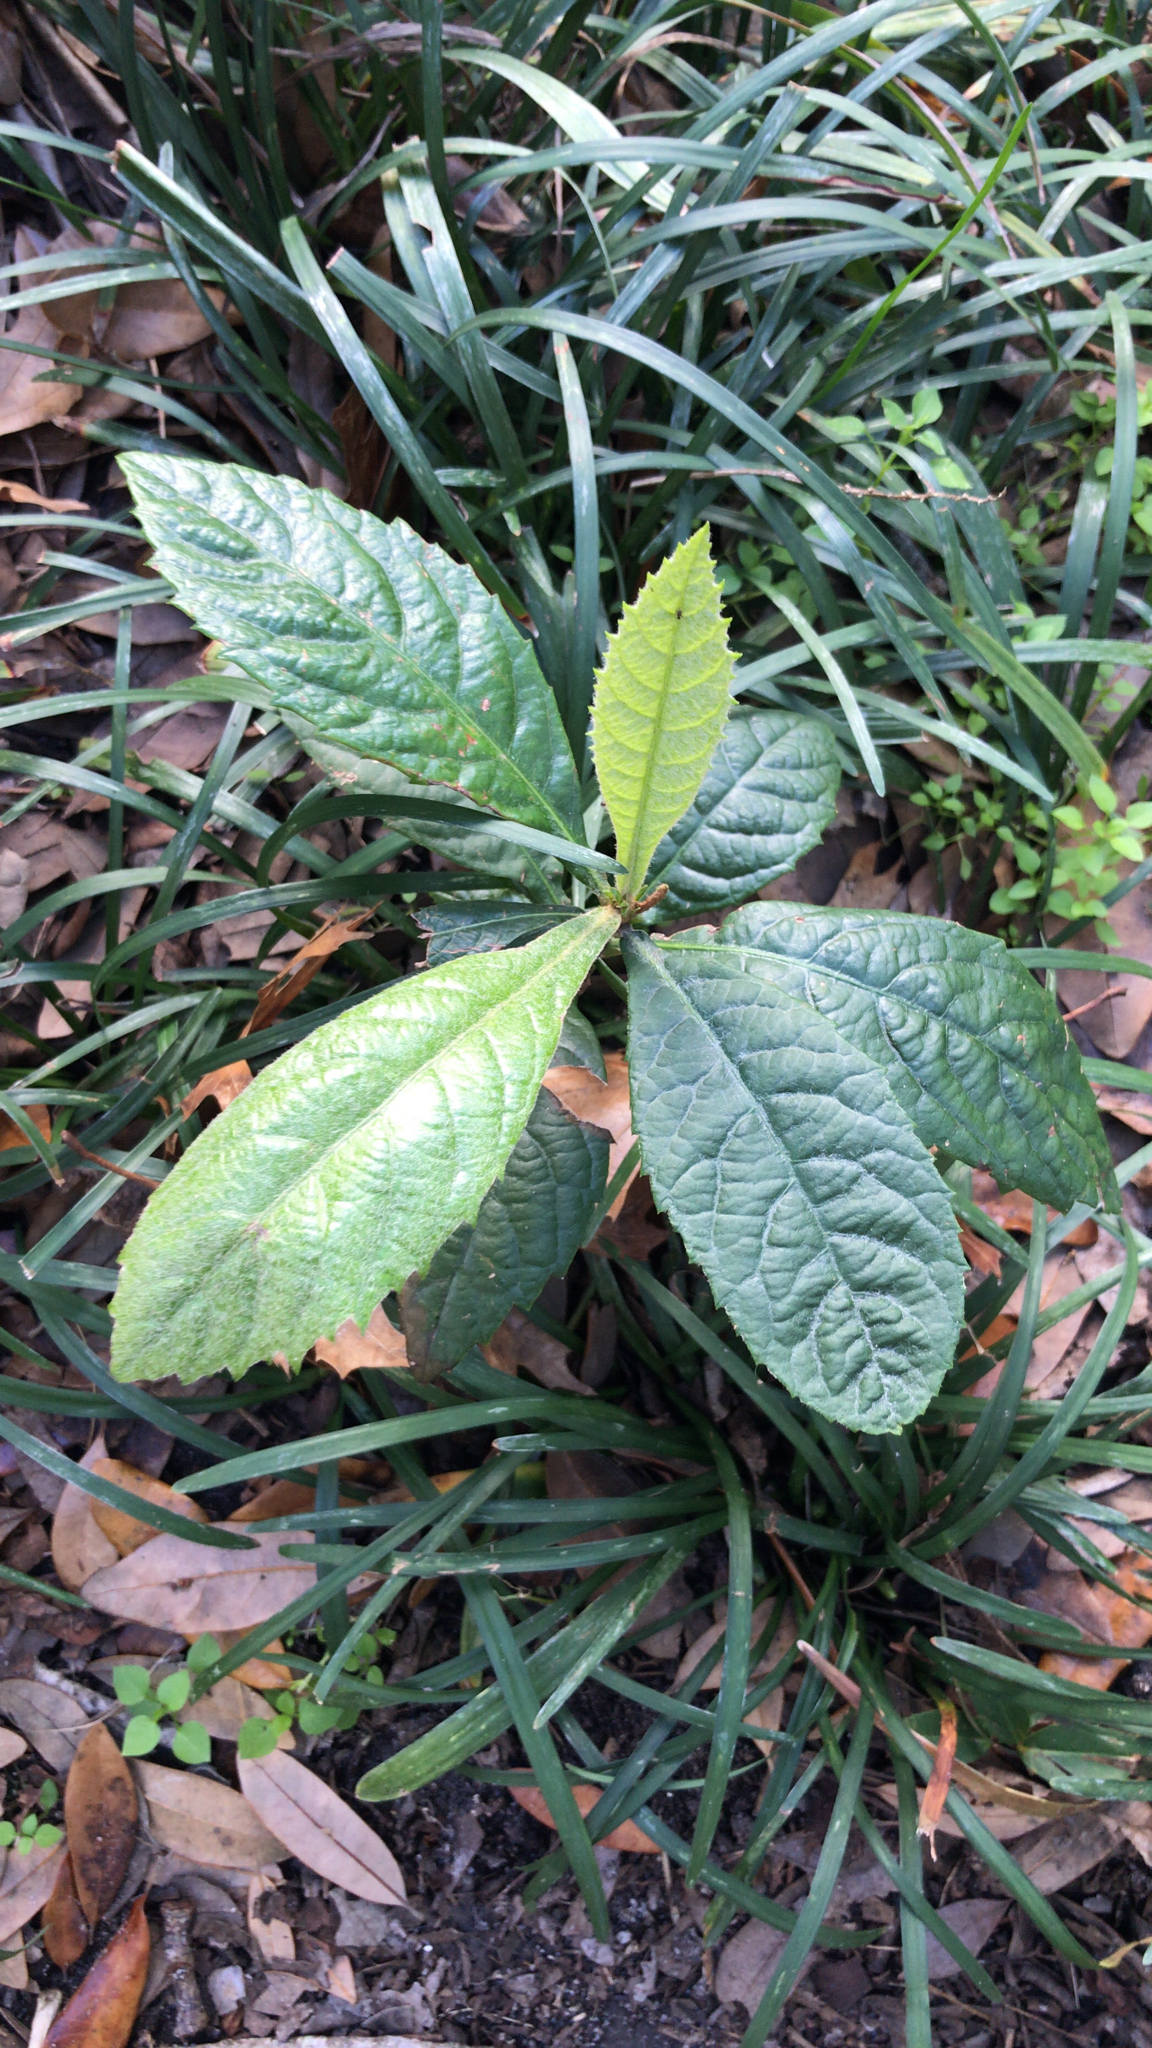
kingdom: Plantae
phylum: Tracheophyta
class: Magnoliopsida
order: Rosales
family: Rosaceae
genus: Rhaphiolepis
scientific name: Rhaphiolepis bibas
